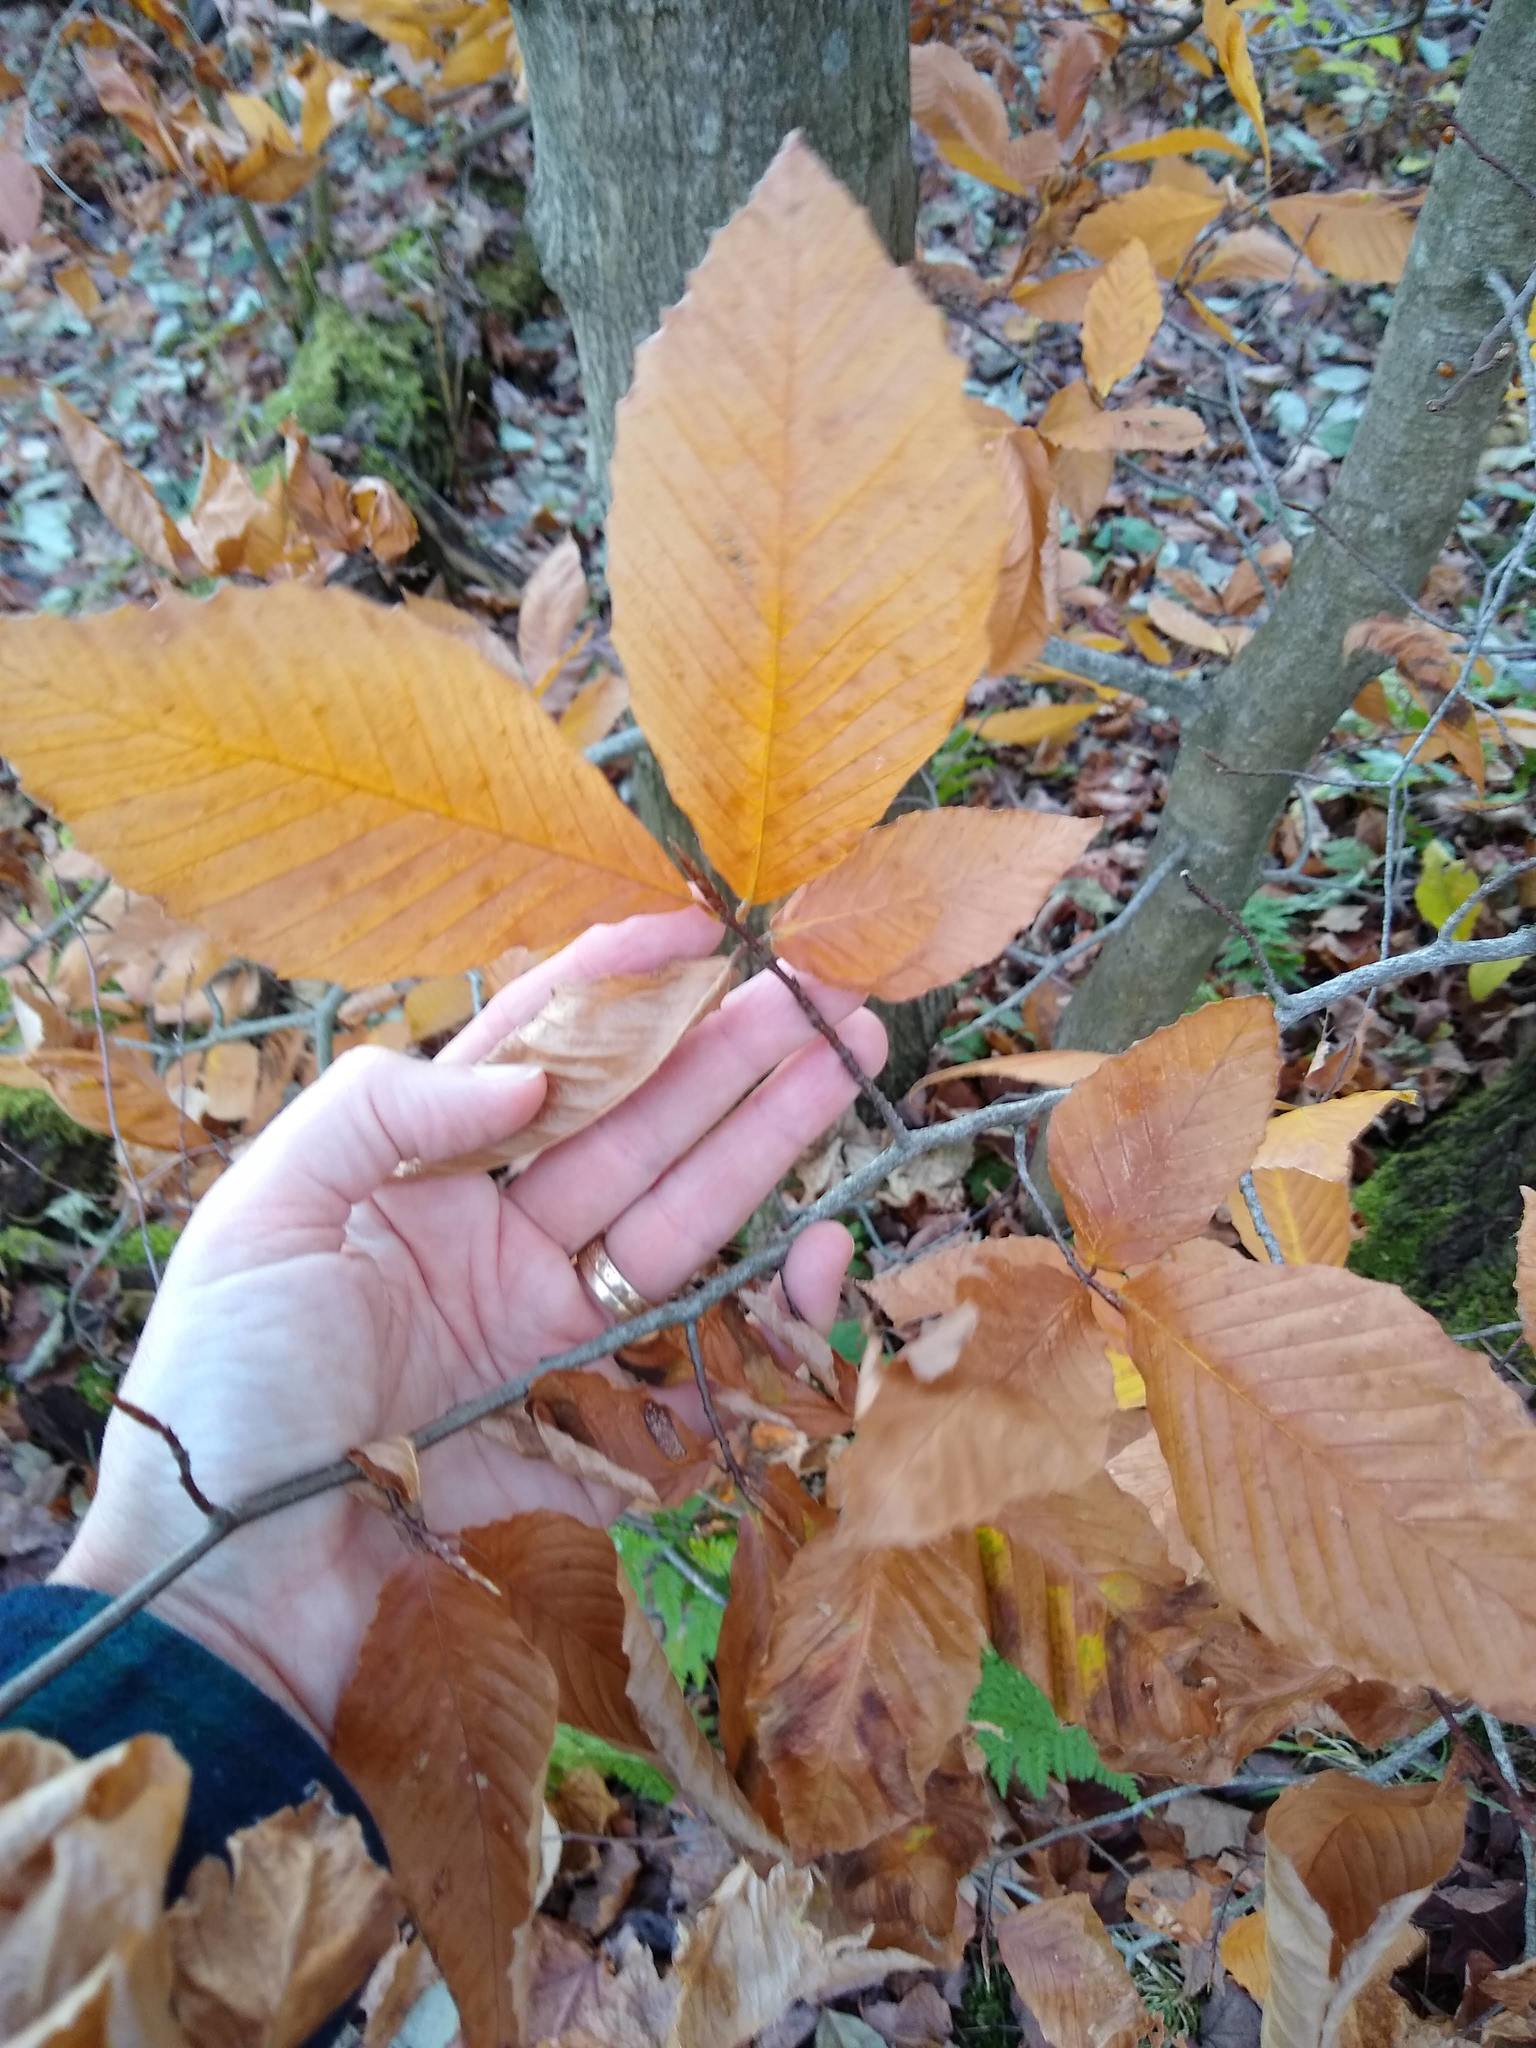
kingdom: Plantae
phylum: Tracheophyta
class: Magnoliopsida
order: Fagales
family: Fagaceae
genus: Fagus
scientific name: Fagus grandifolia
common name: American beech
